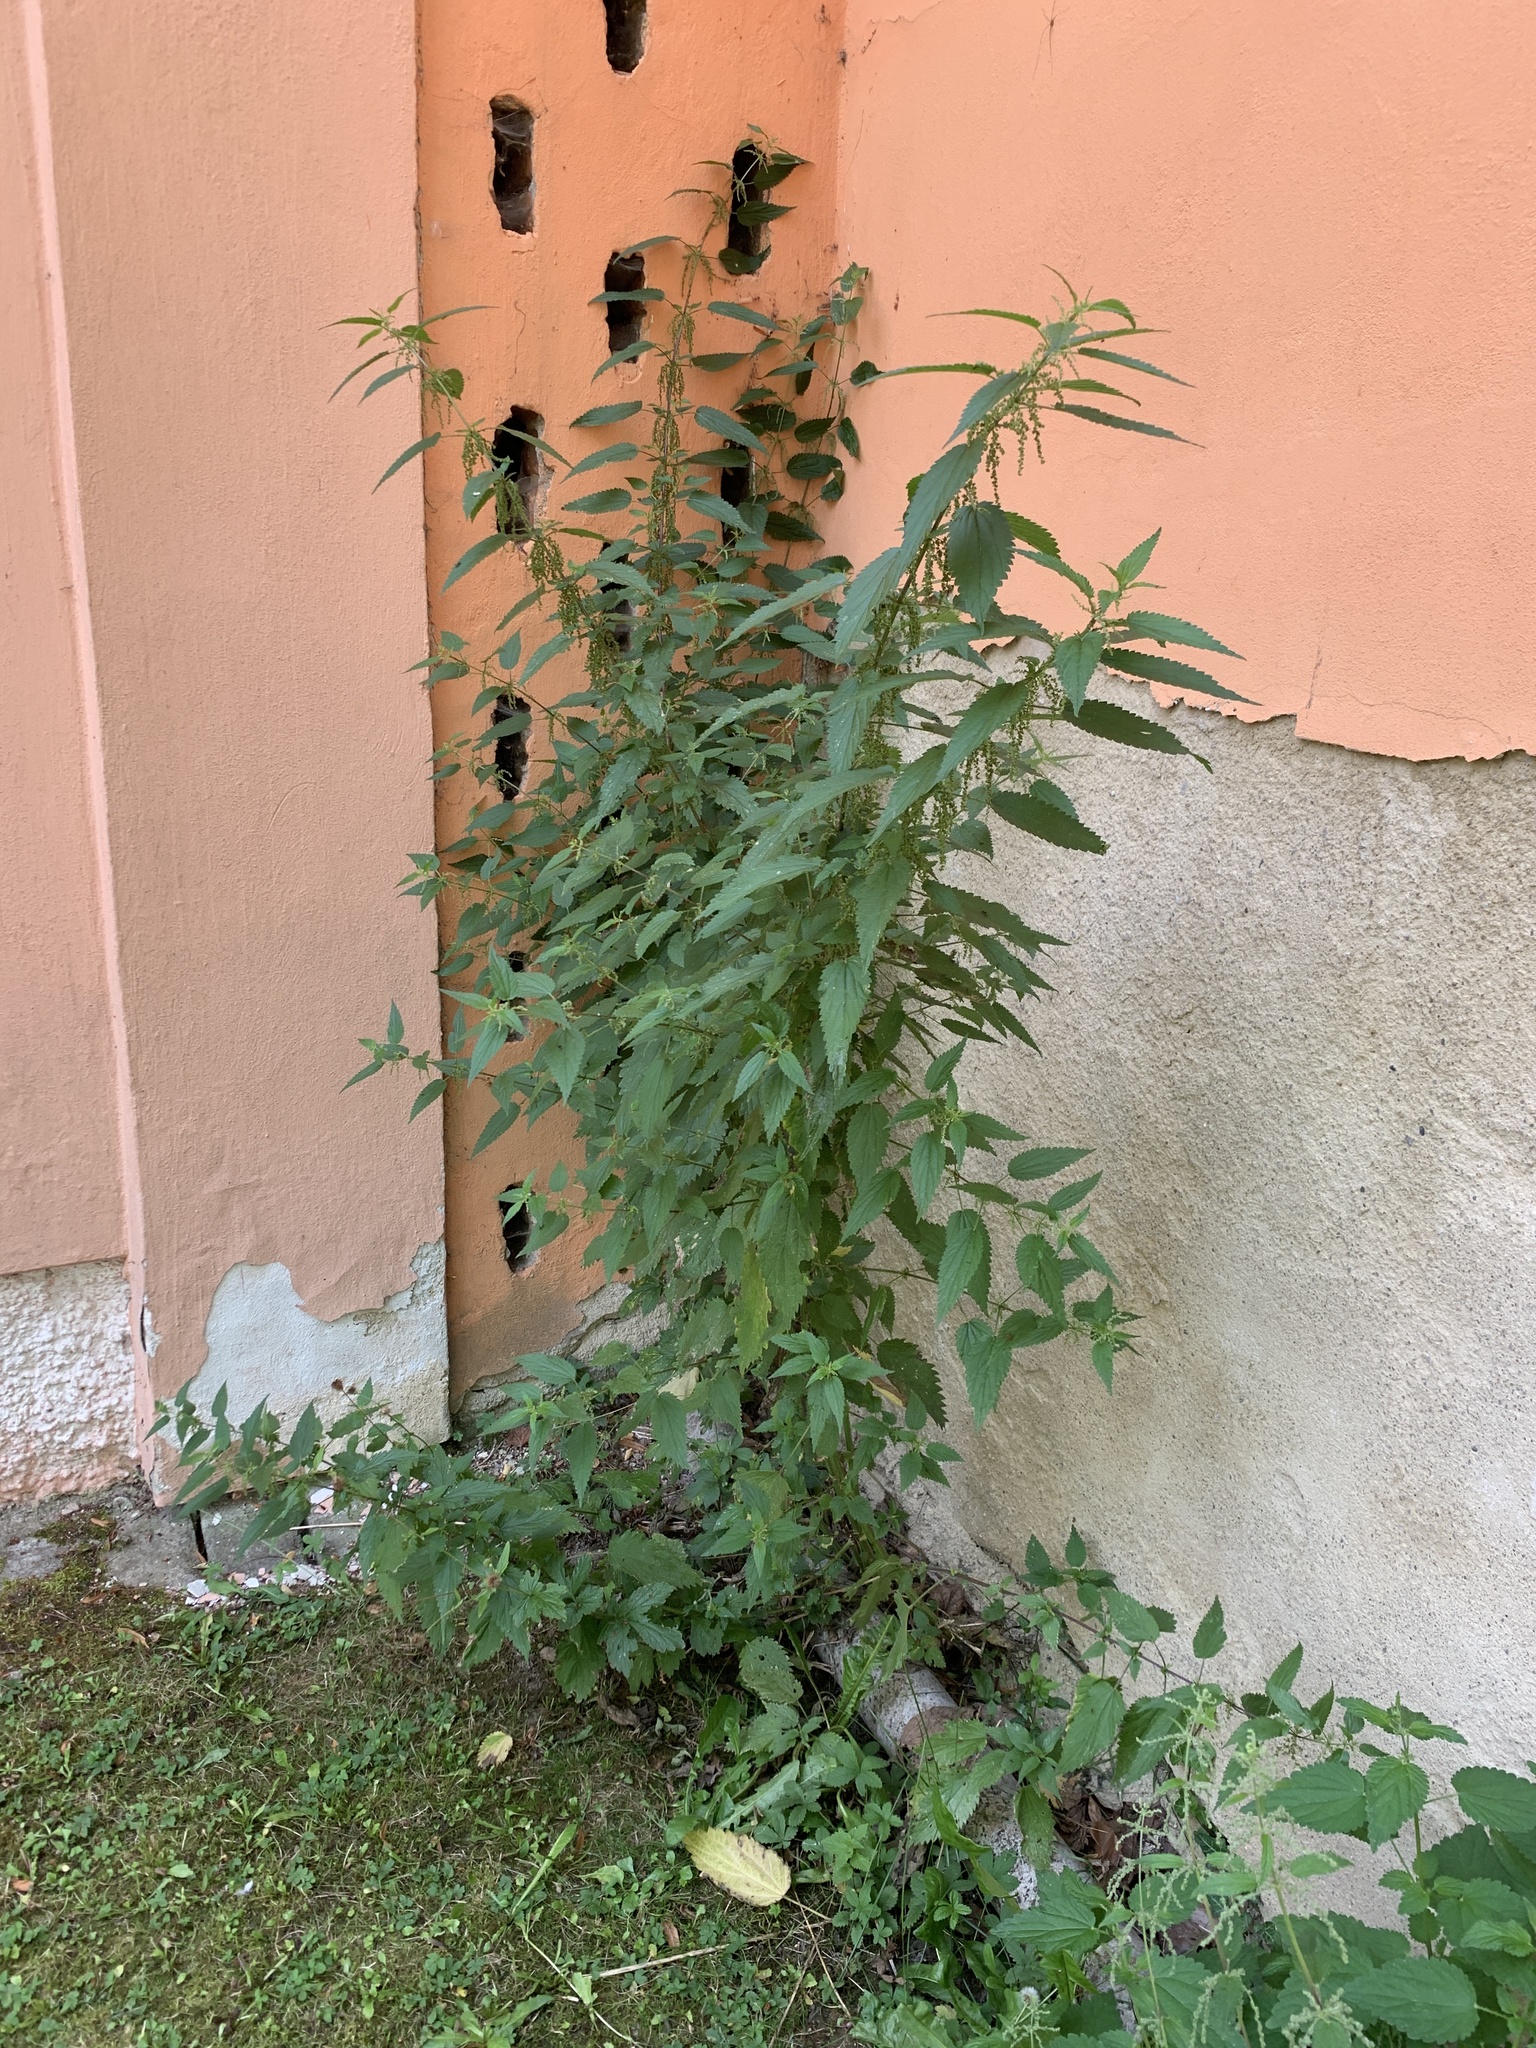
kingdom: Plantae
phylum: Tracheophyta
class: Magnoliopsida
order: Rosales
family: Urticaceae
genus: Urtica
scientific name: Urtica dioica
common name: Common nettle
